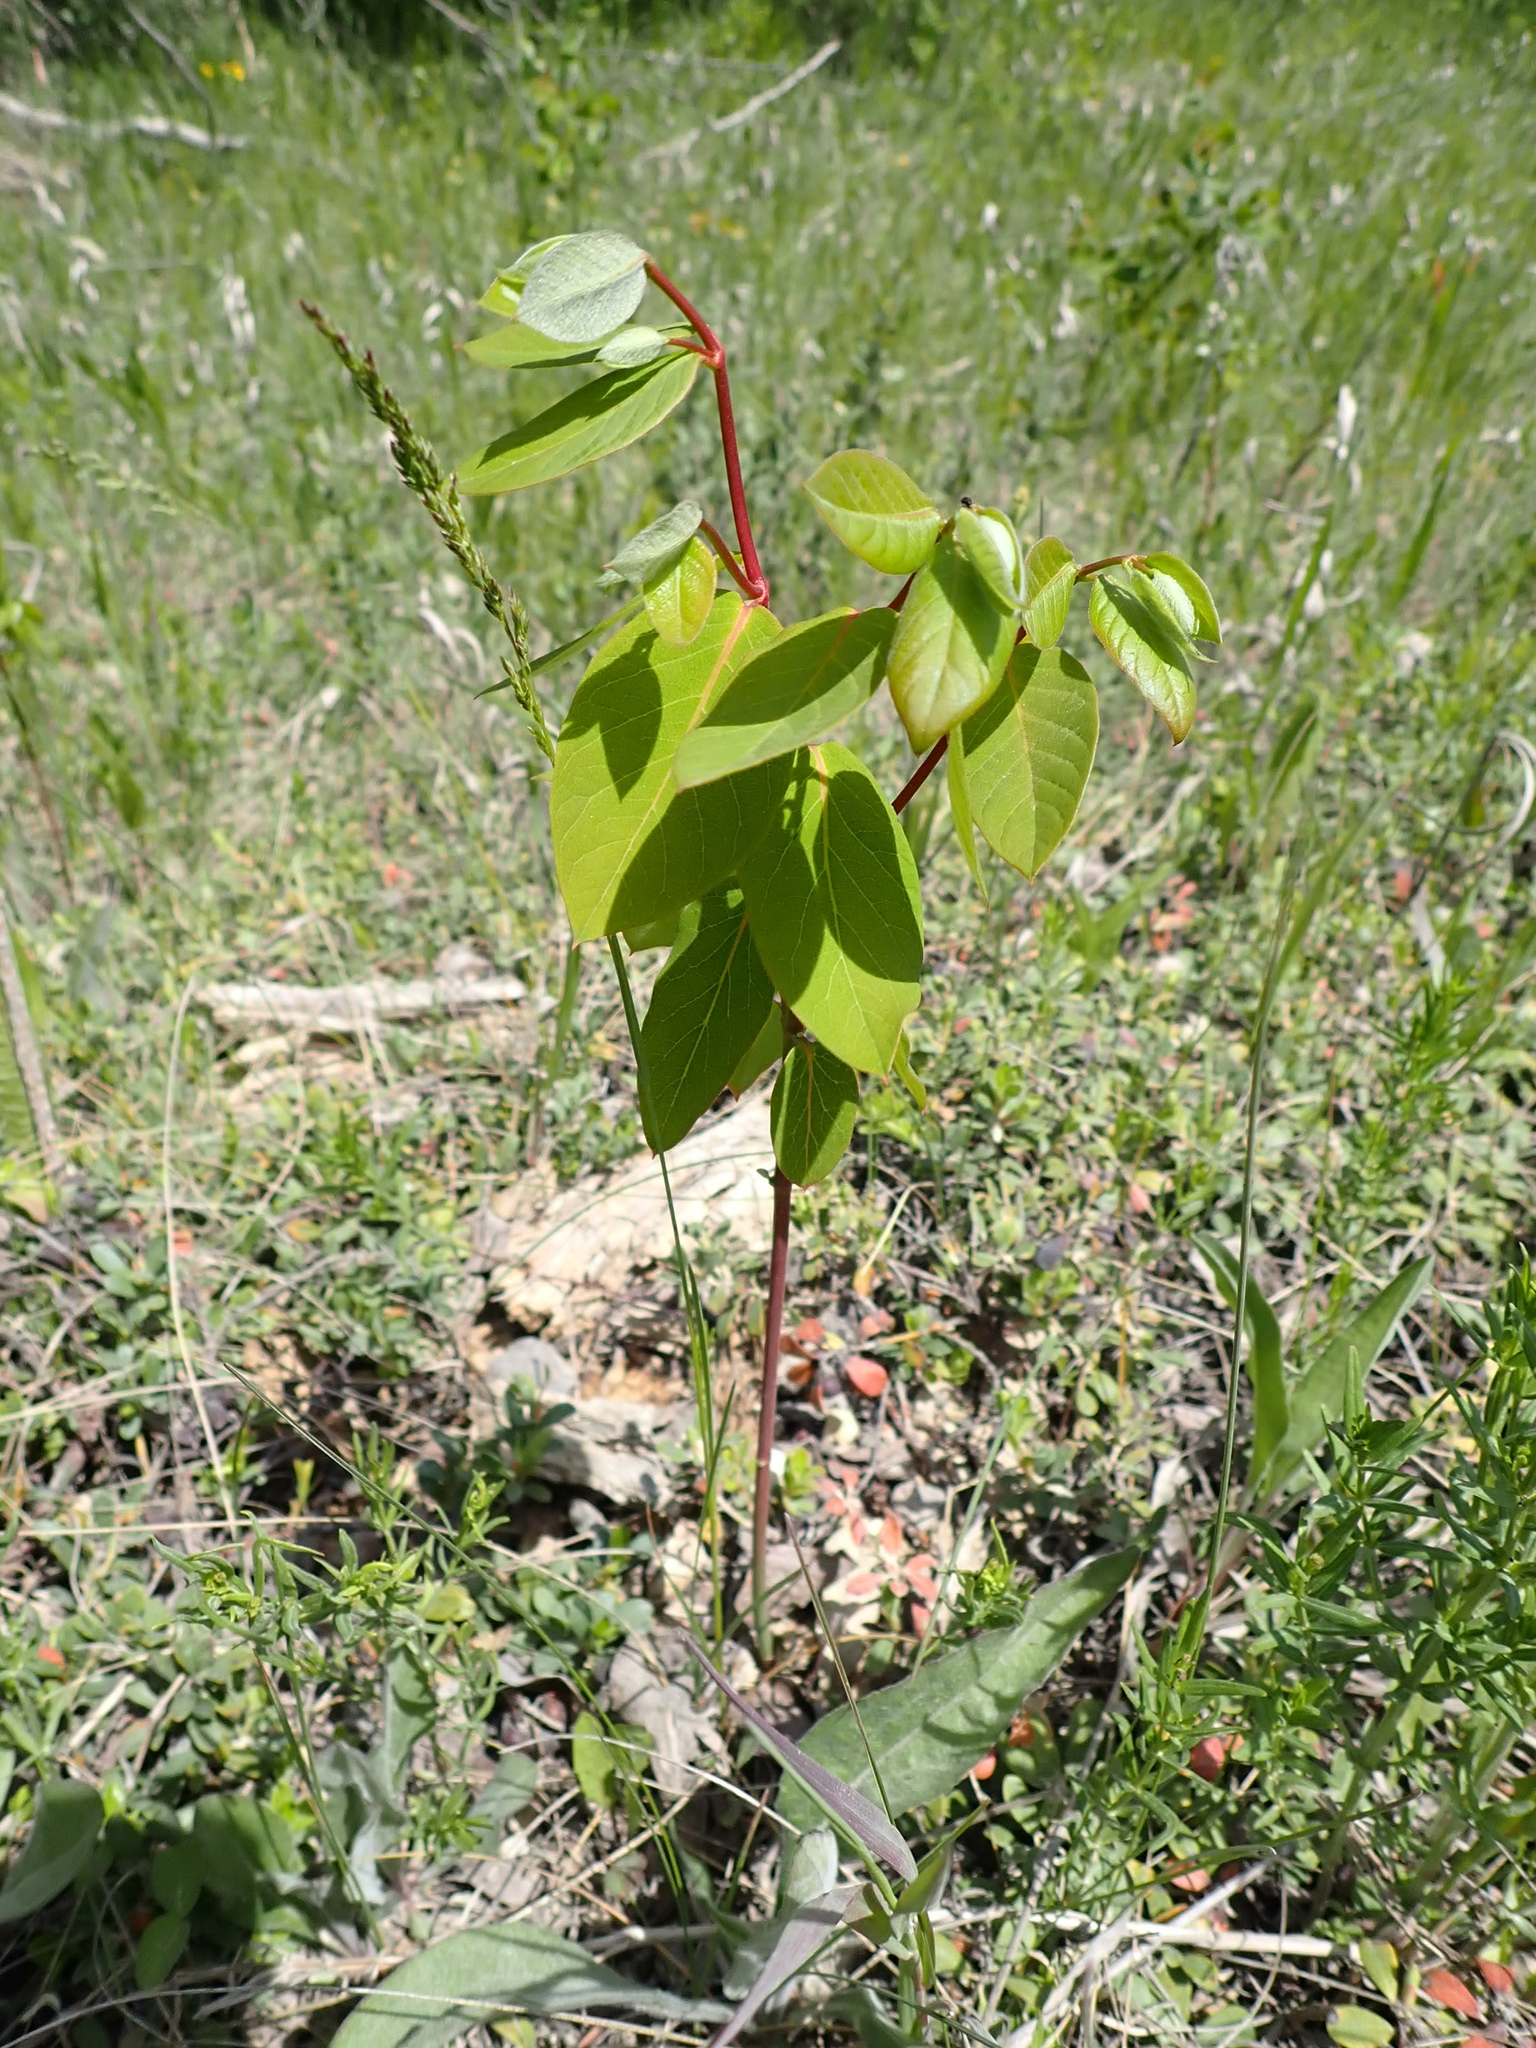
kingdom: Plantae
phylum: Tracheophyta
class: Magnoliopsida
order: Gentianales
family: Apocynaceae
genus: Apocynum
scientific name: Apocynum androsaemifolium
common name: Spreading dogbane
